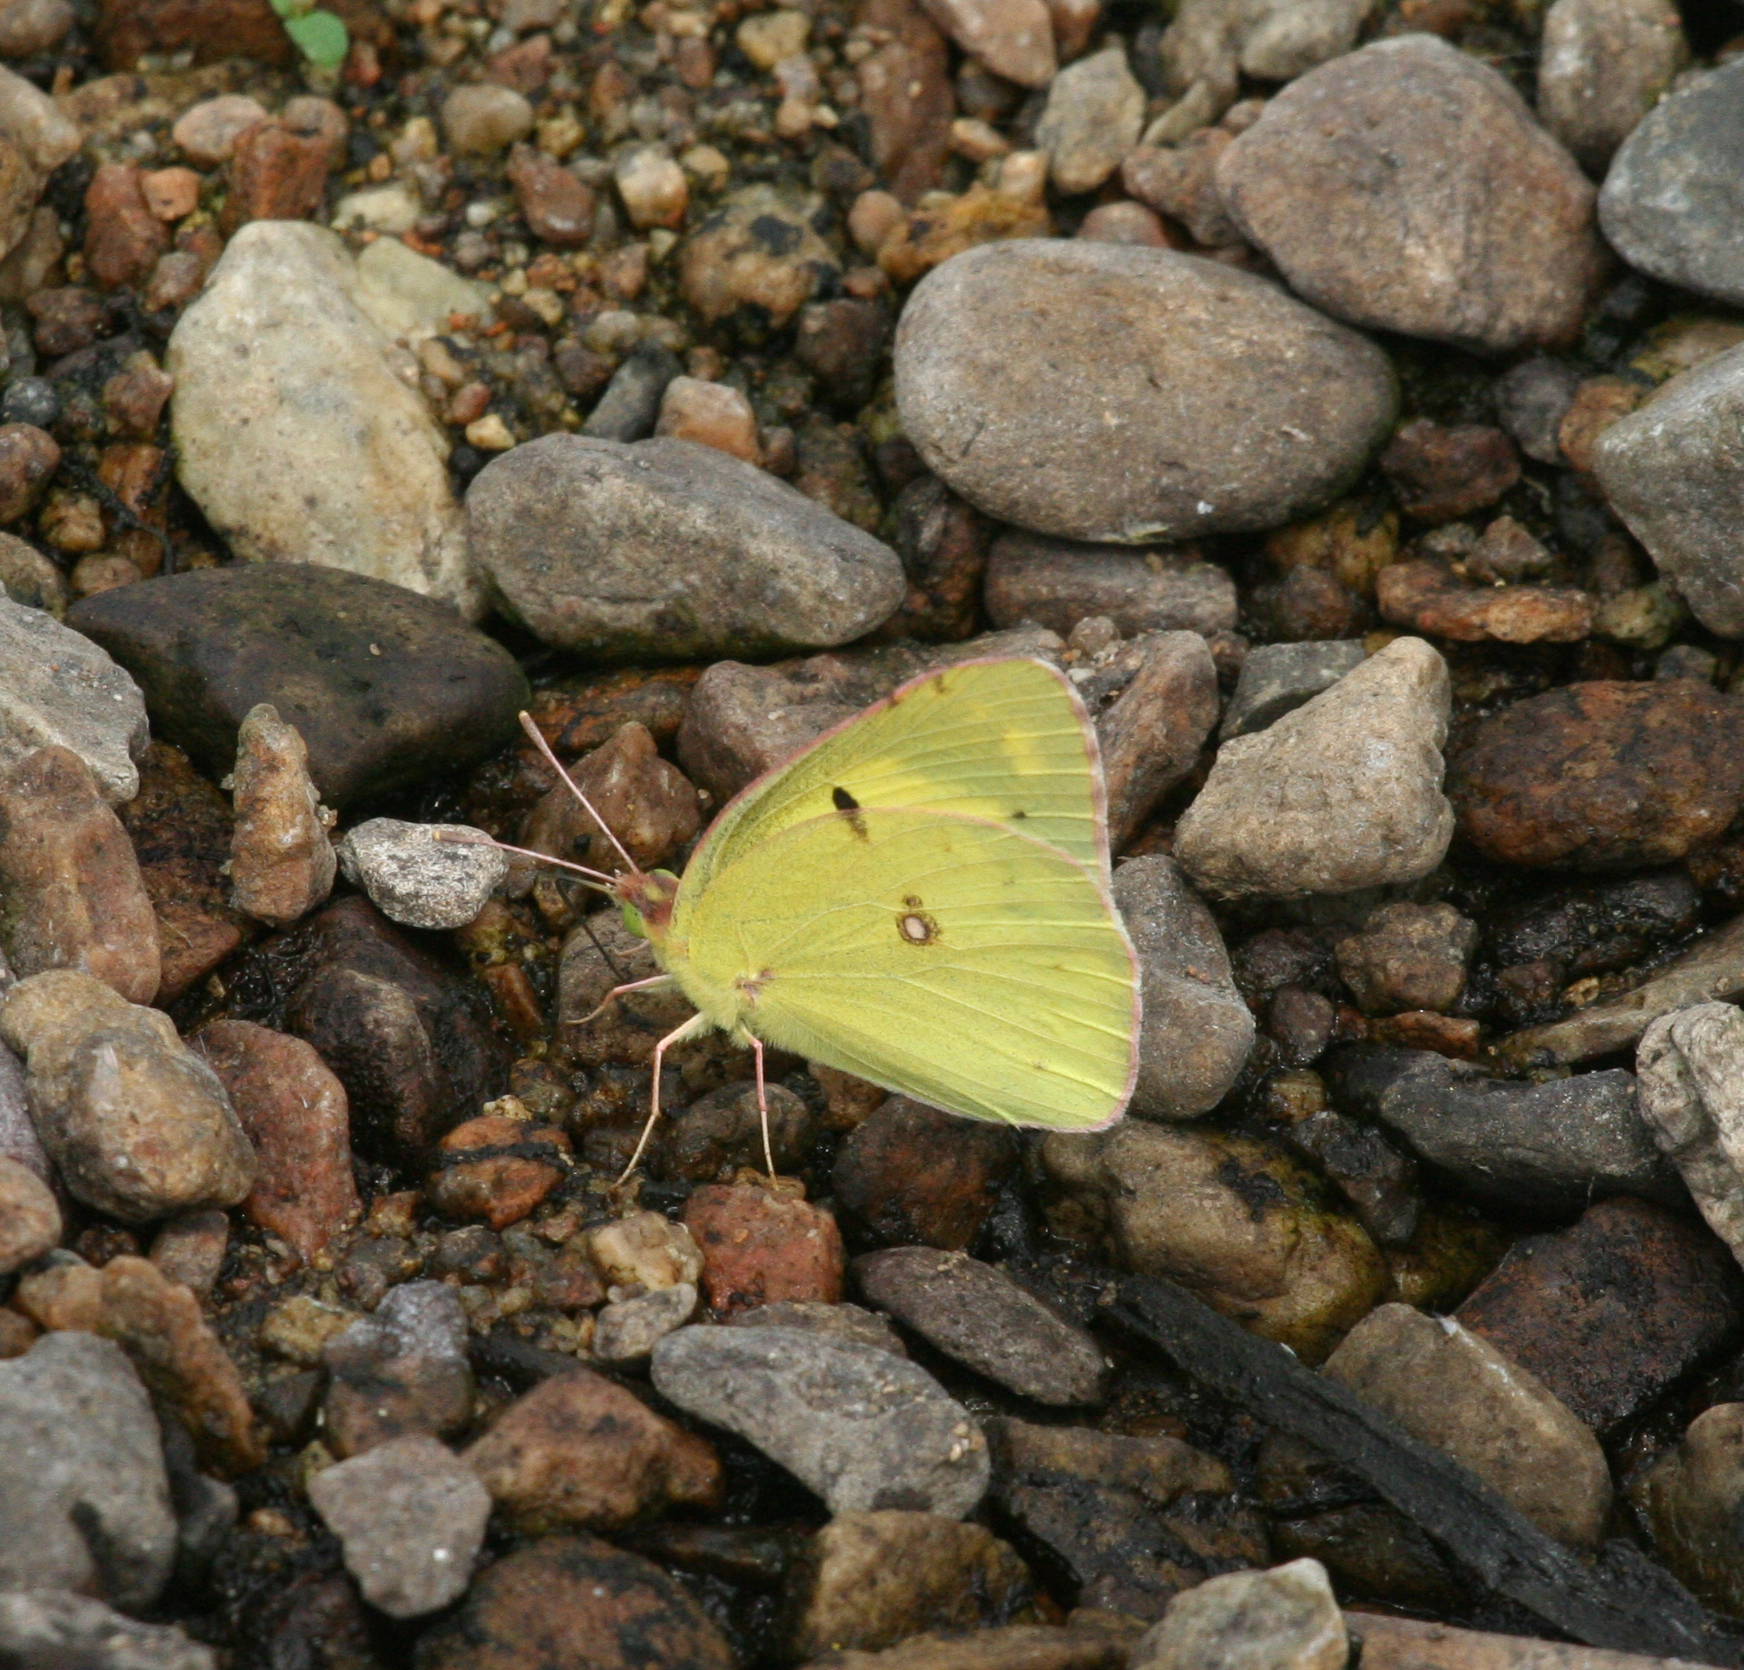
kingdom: Animalia
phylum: Arthropoda
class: Insecta
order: Lepidoptera
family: Pieridae
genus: Colias
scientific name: Colias poliographus
